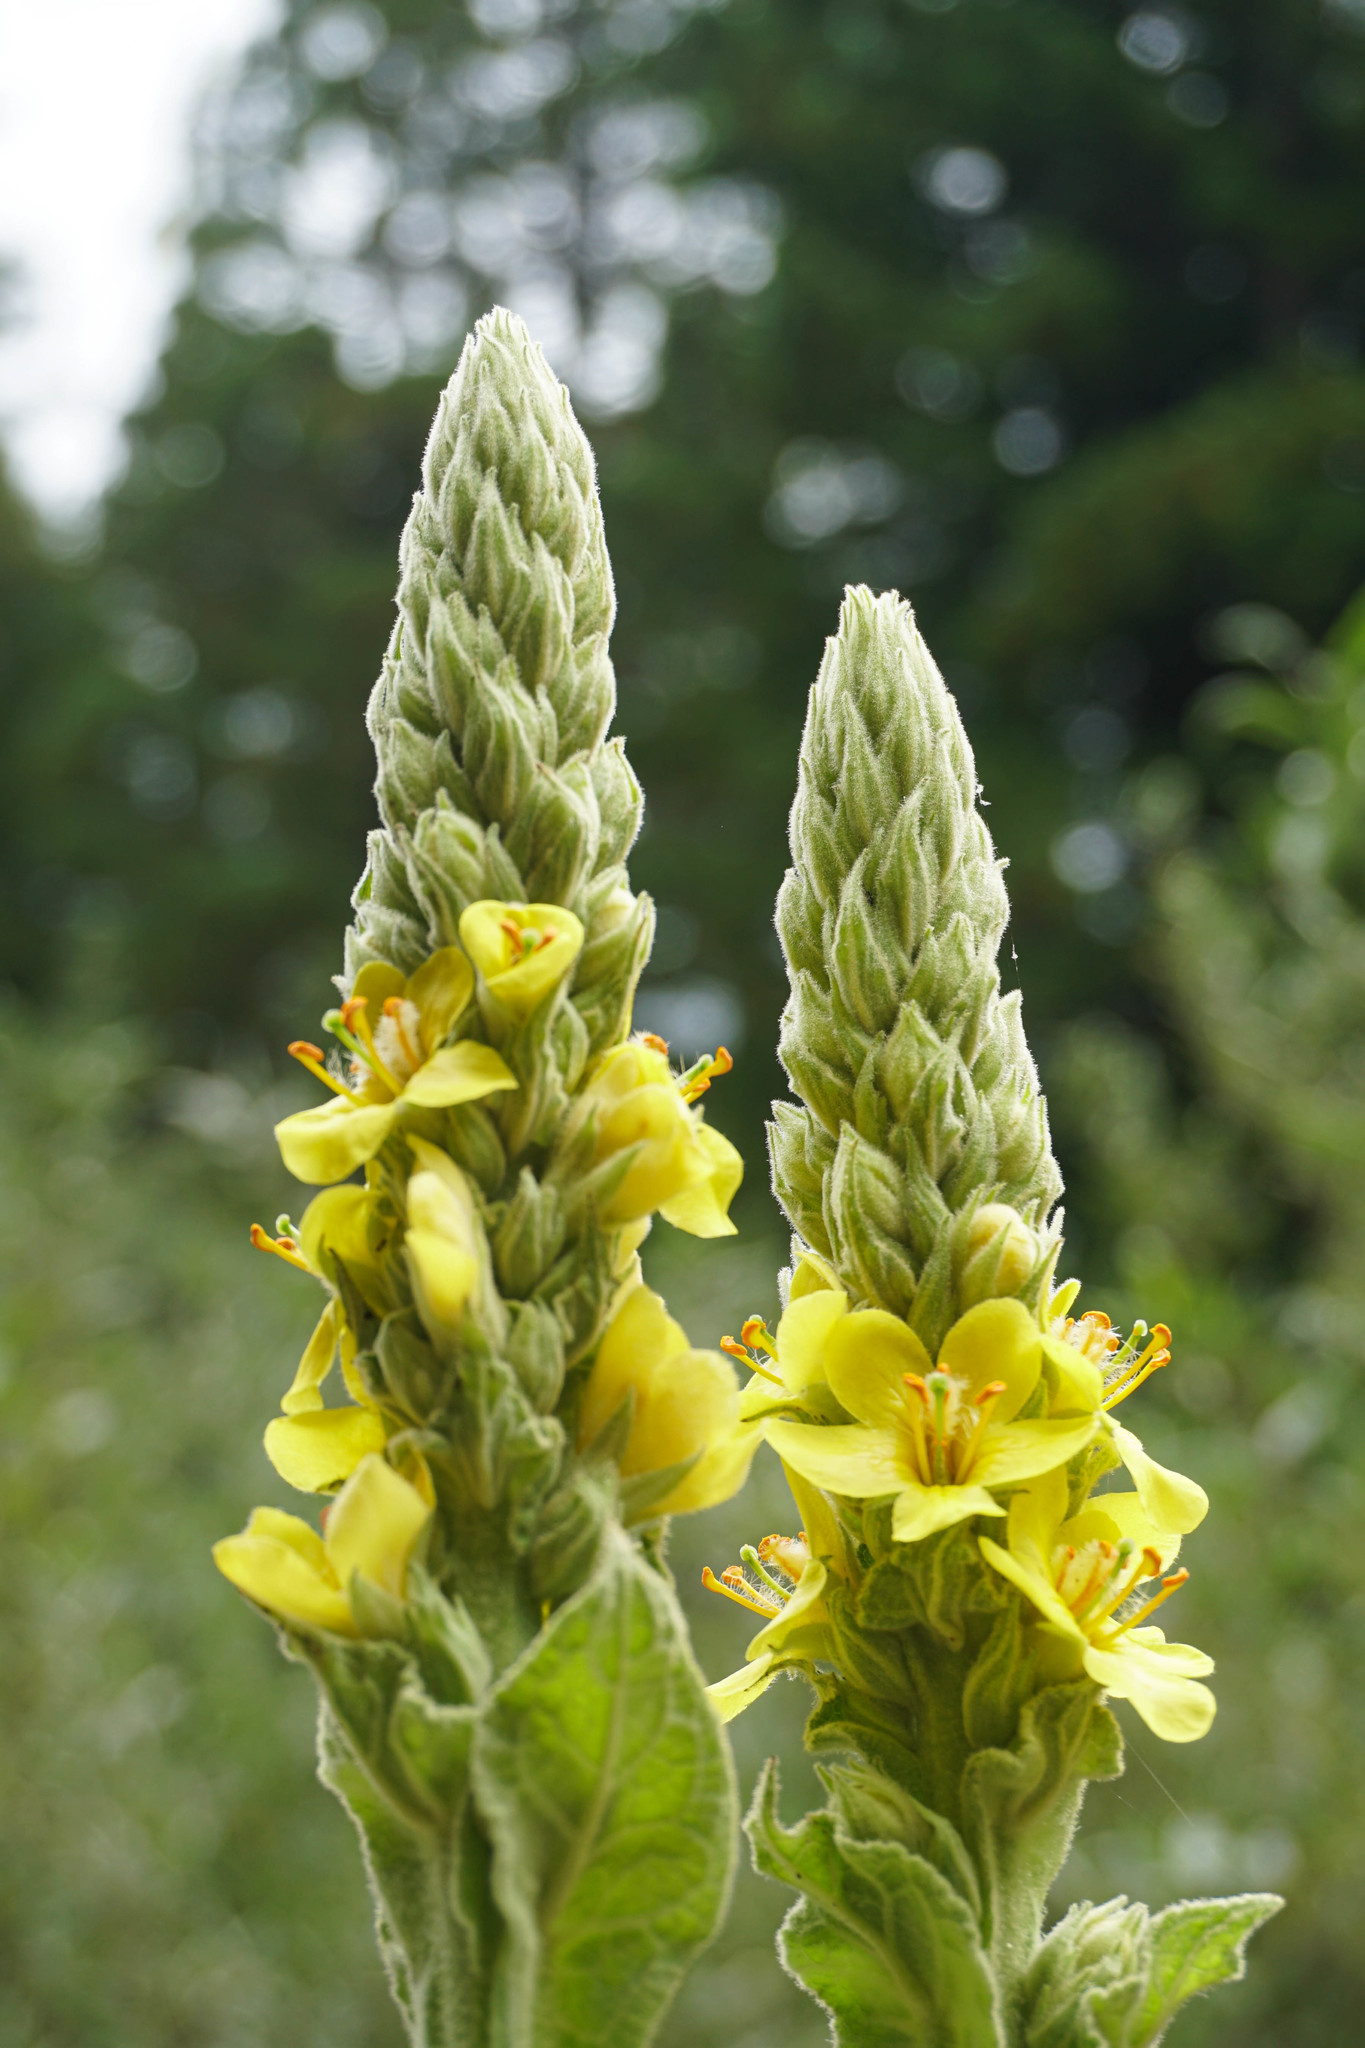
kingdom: Plantae
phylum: Tracheophyta
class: Magnoliopsida
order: Lamiales
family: Scrophulariaceae
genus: Verbascum
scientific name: Verbascum thapsus
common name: Common mullein
